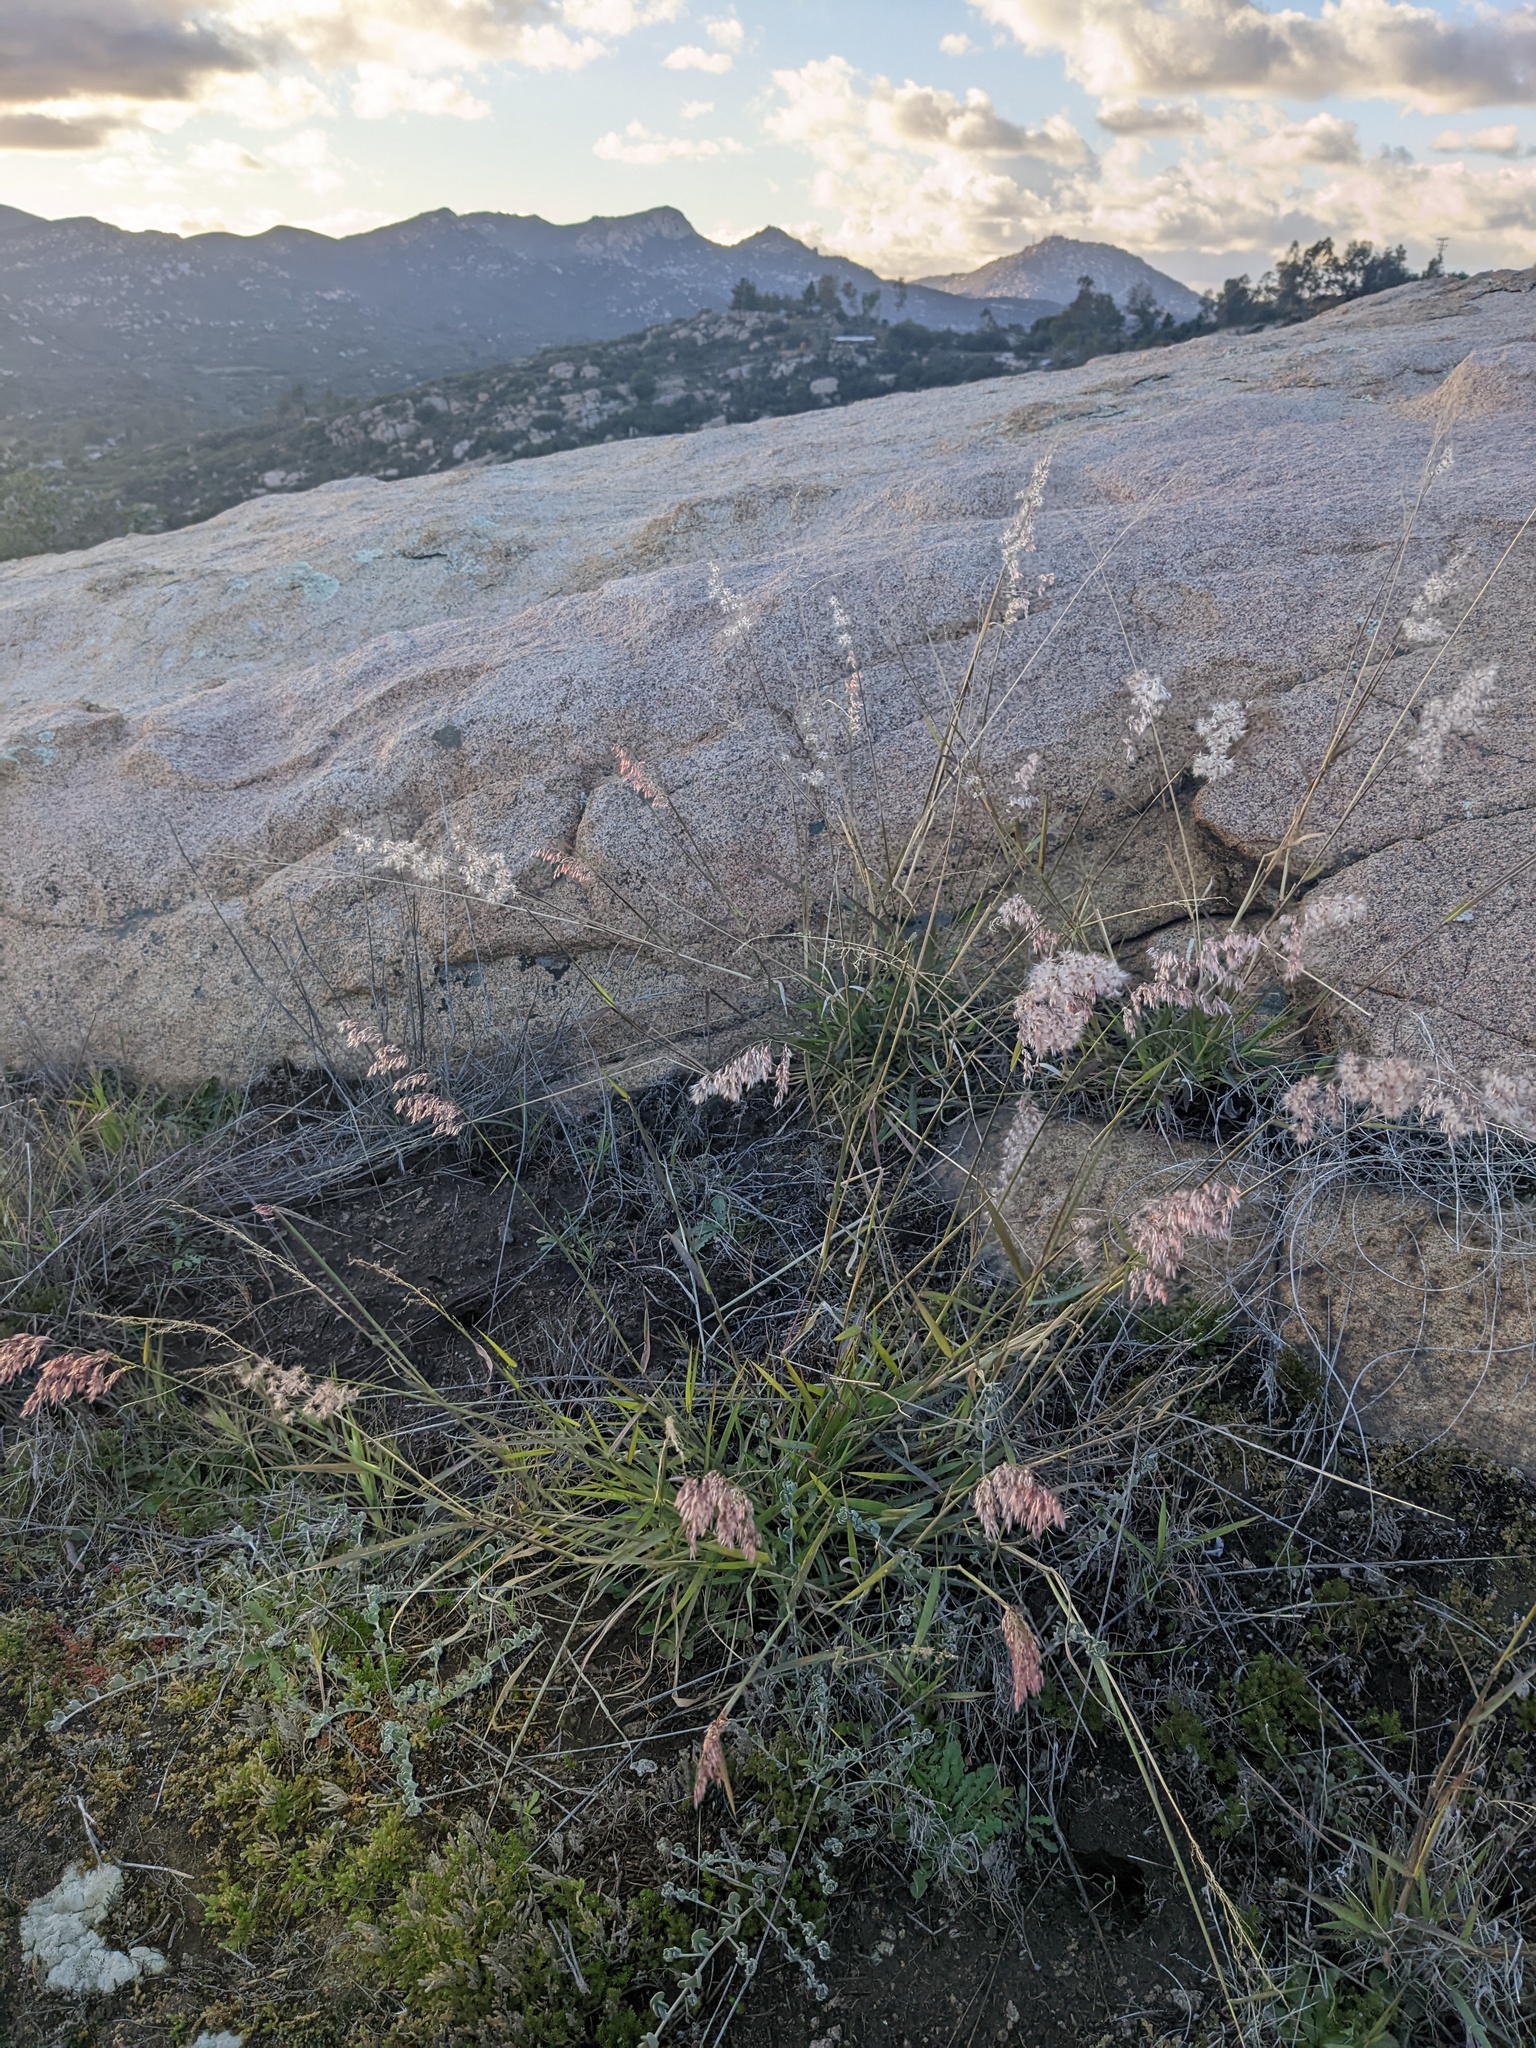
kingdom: Plantae
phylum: Tracheophyta
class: Liliopsida
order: Poales
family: Poaceae
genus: Melinis
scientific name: Melinis repens
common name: Rose natal grass
